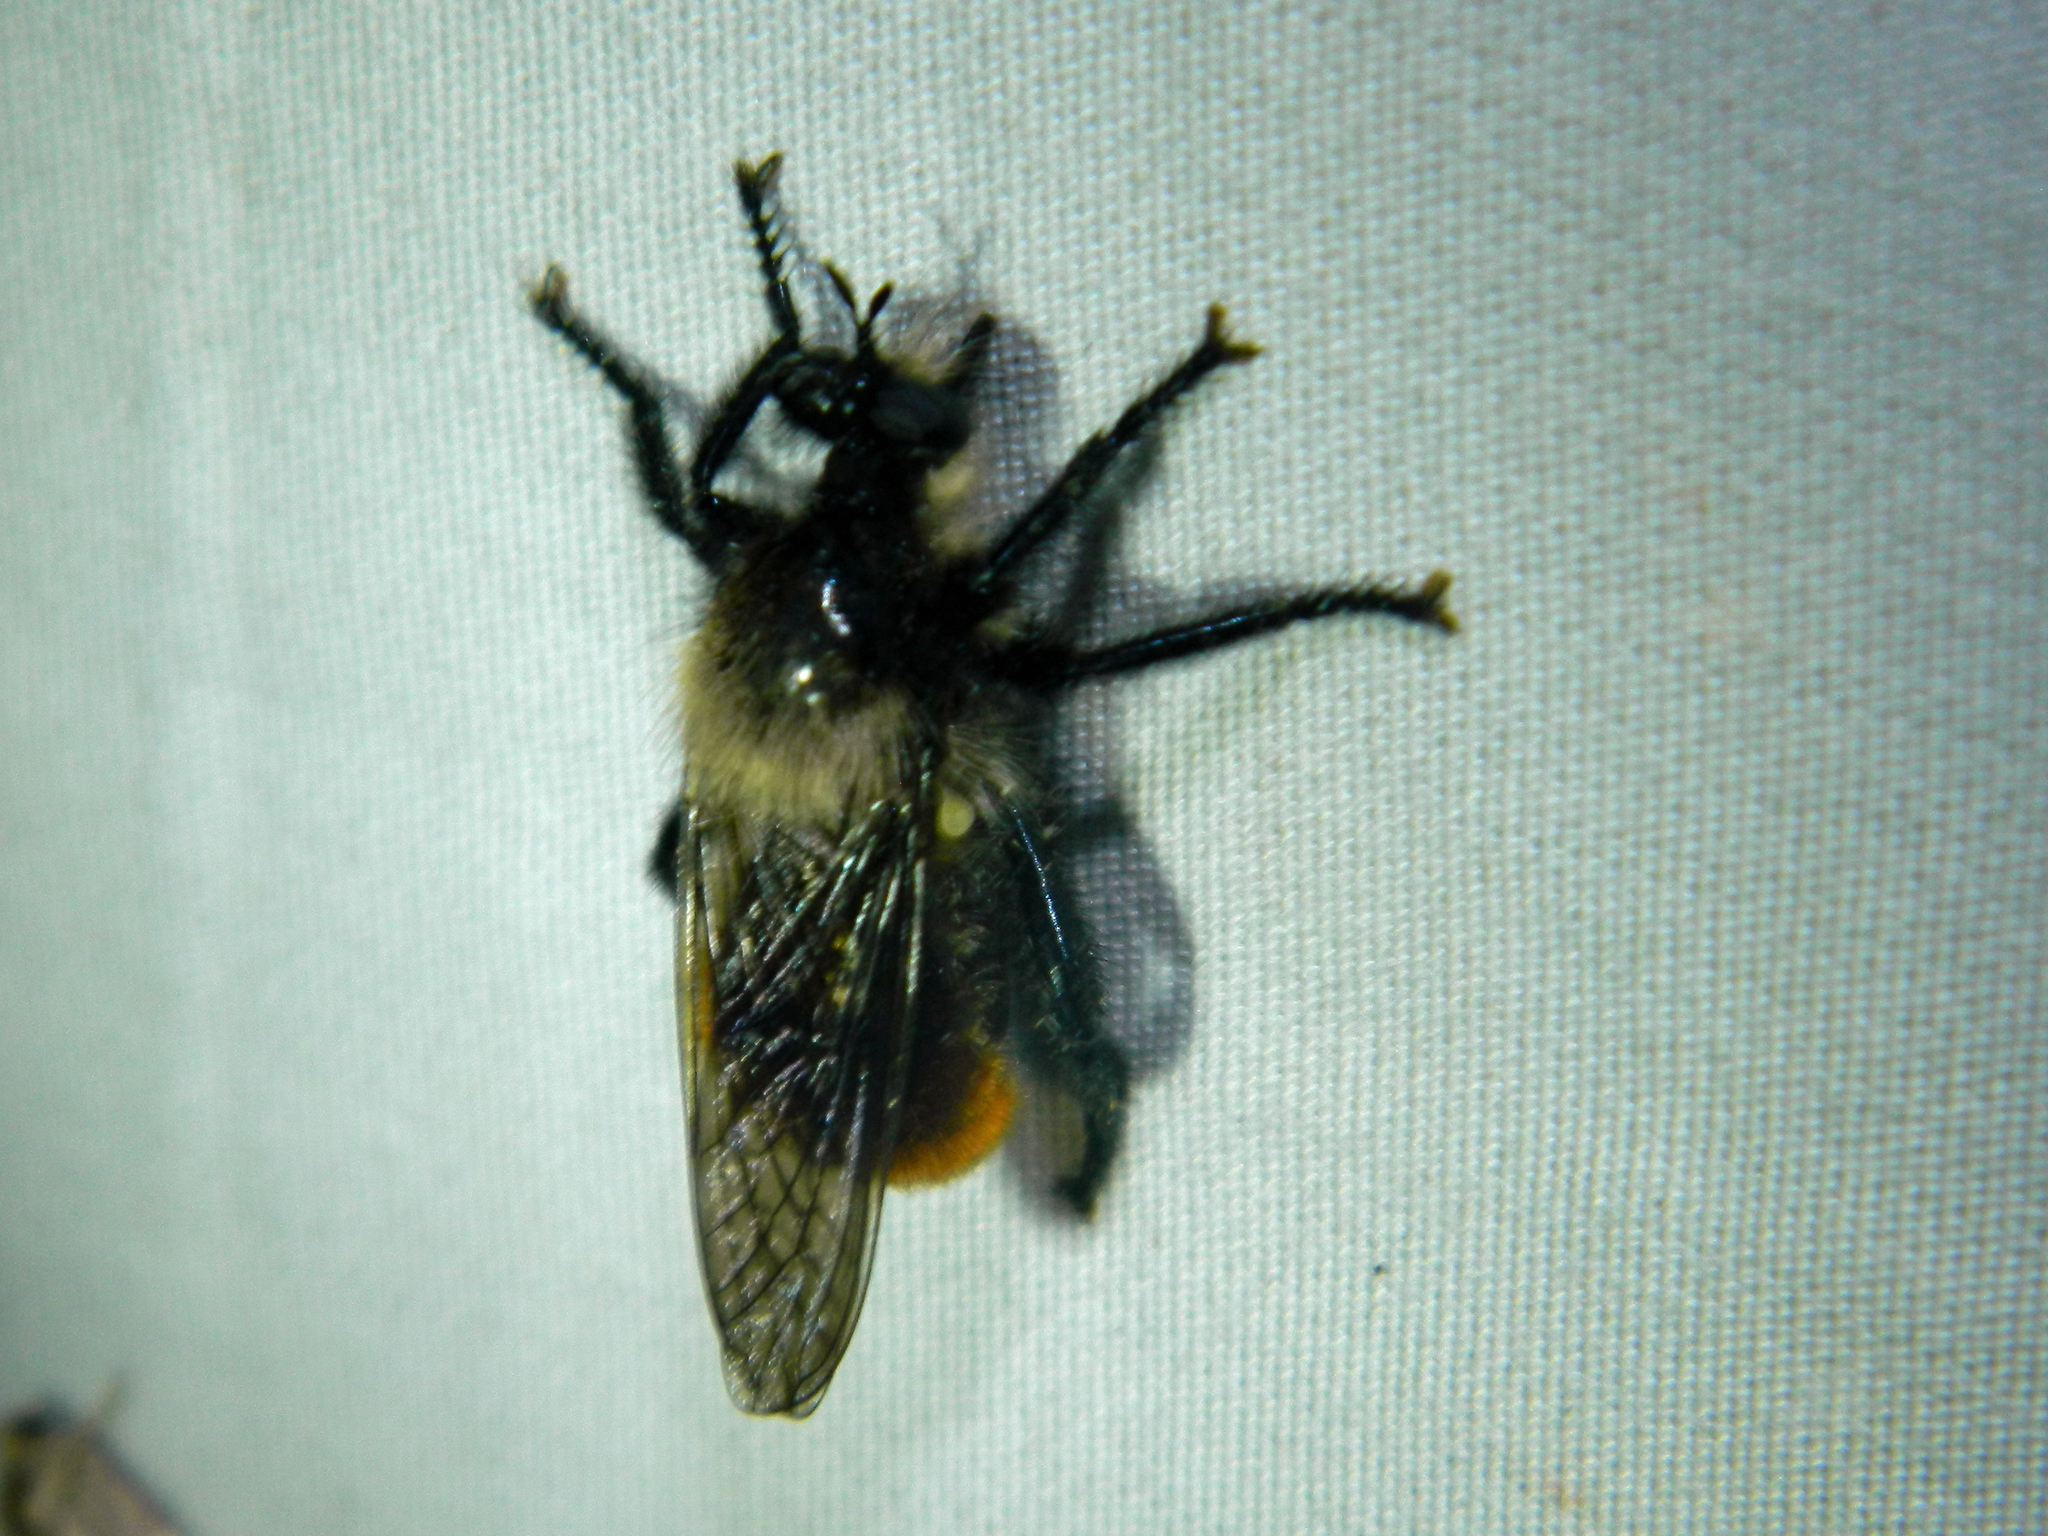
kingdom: Animalia
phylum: Arthropoda
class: Insecta
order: Diptera
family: Asilidae
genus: Laphria
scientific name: Laphria janus
